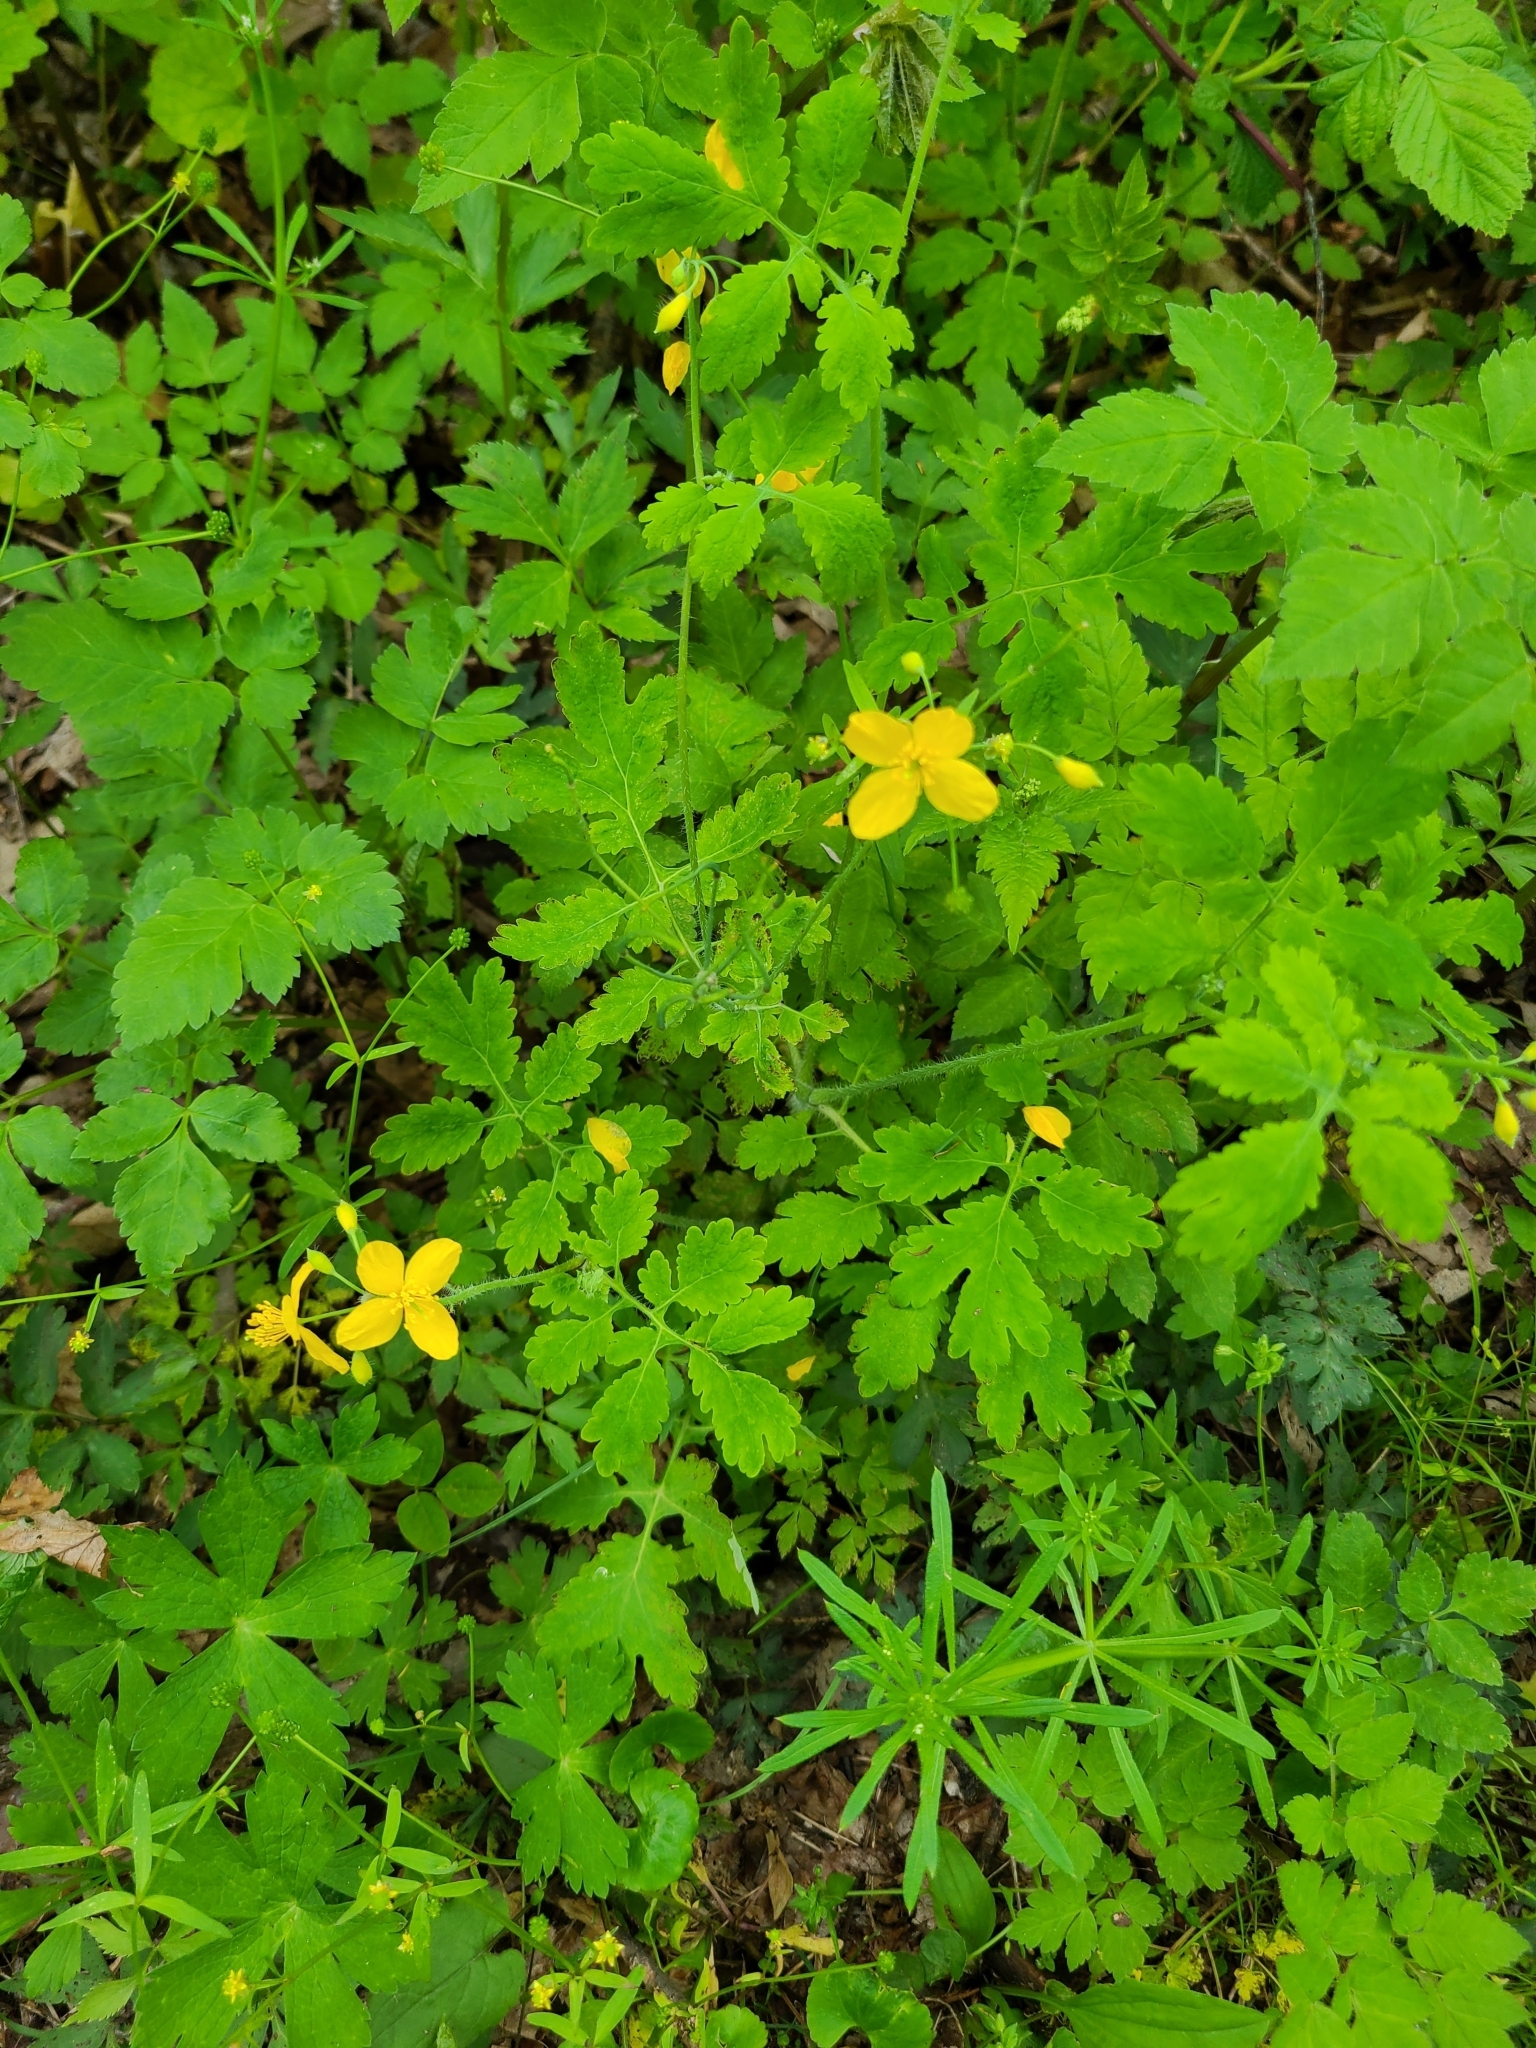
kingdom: Plantae
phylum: Tracheophyta
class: Magnoliopsida
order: Ranunculales
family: Papaveraceae
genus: Chelidonium
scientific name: Chelidonium majus
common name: Greater celandine
